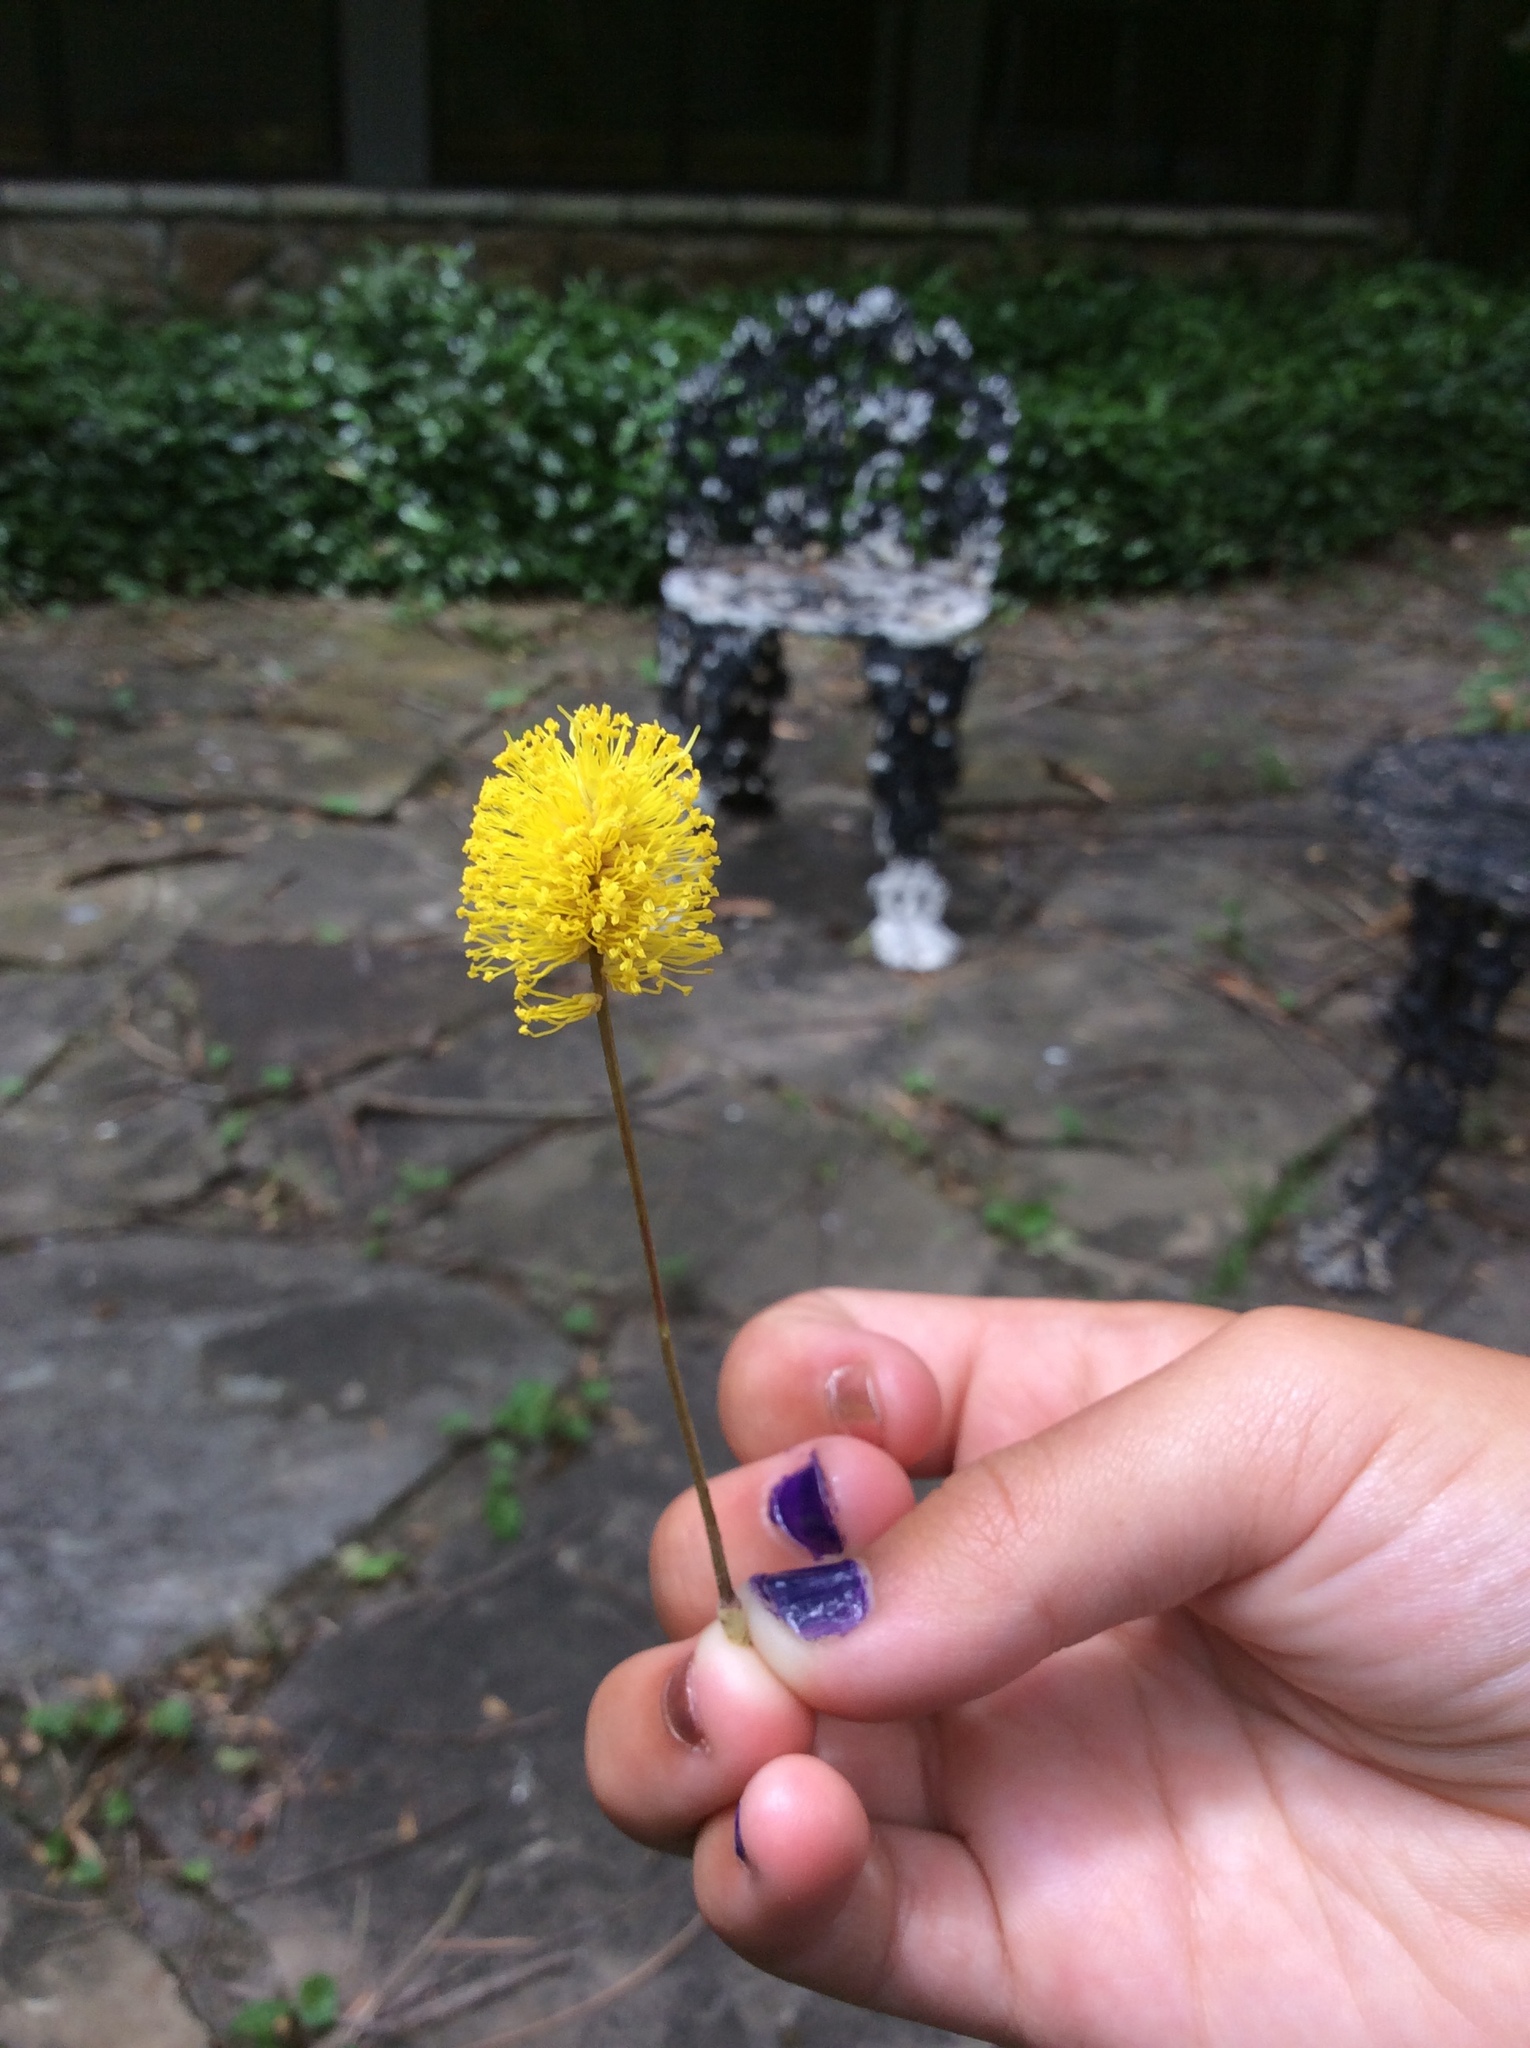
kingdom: Plantae
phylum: Tracheophyta
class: Magnoliopsida
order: Fabales
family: Fabaceae
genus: Neptunia
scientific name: Neptunia lutea
